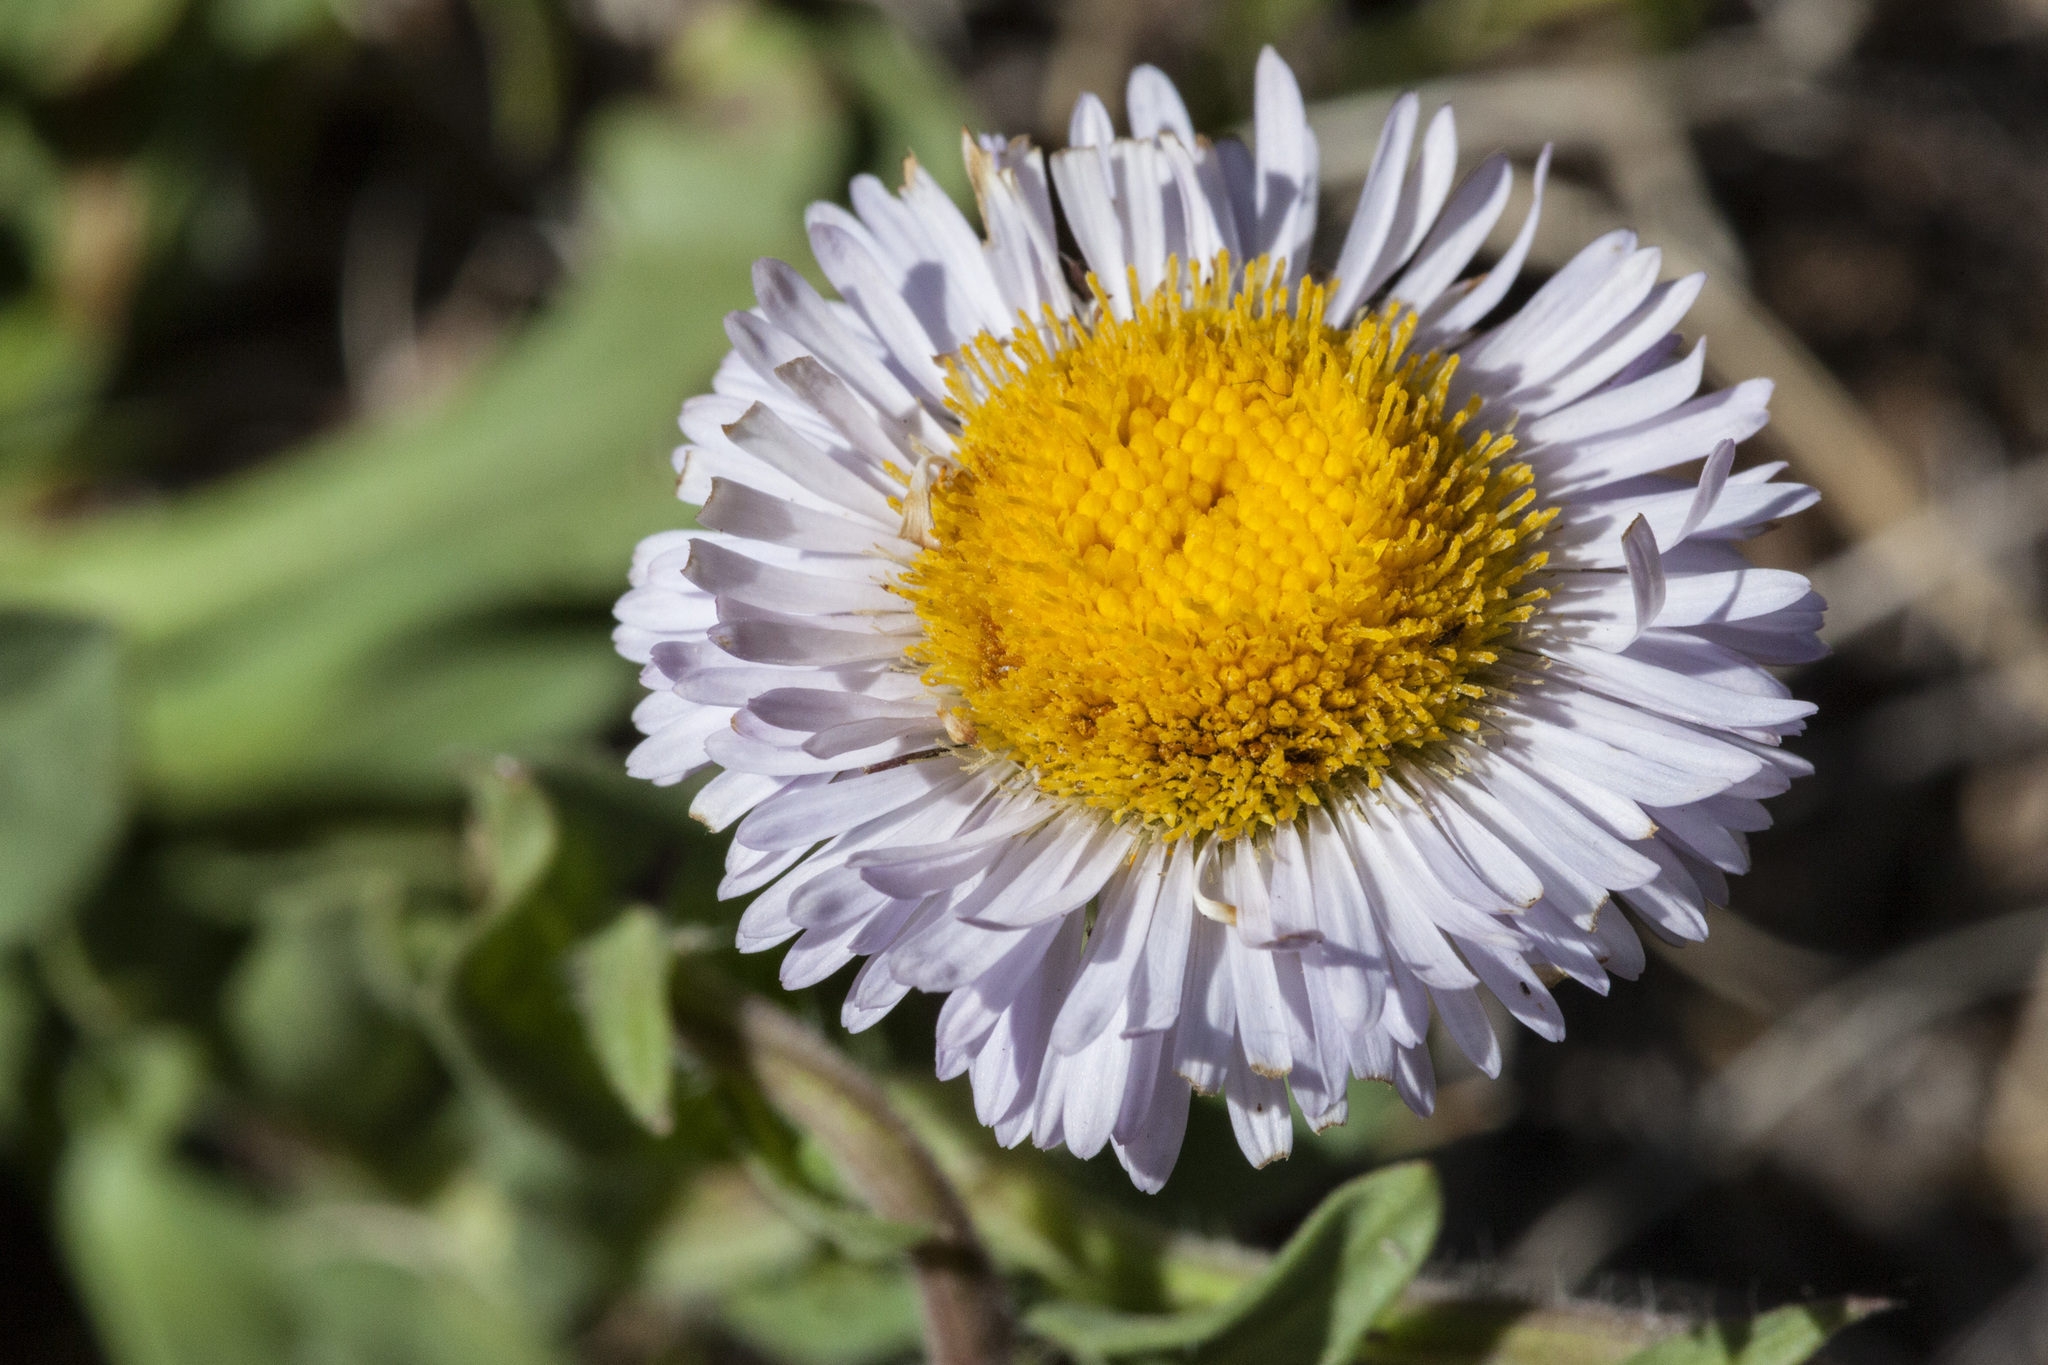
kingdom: Plantae
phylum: Tracheophyta
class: Magnoliopsida
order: Asterales
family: Asteraceae
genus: Erigeron
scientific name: Erigeron formosissimus
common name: Beautiful fleabane
